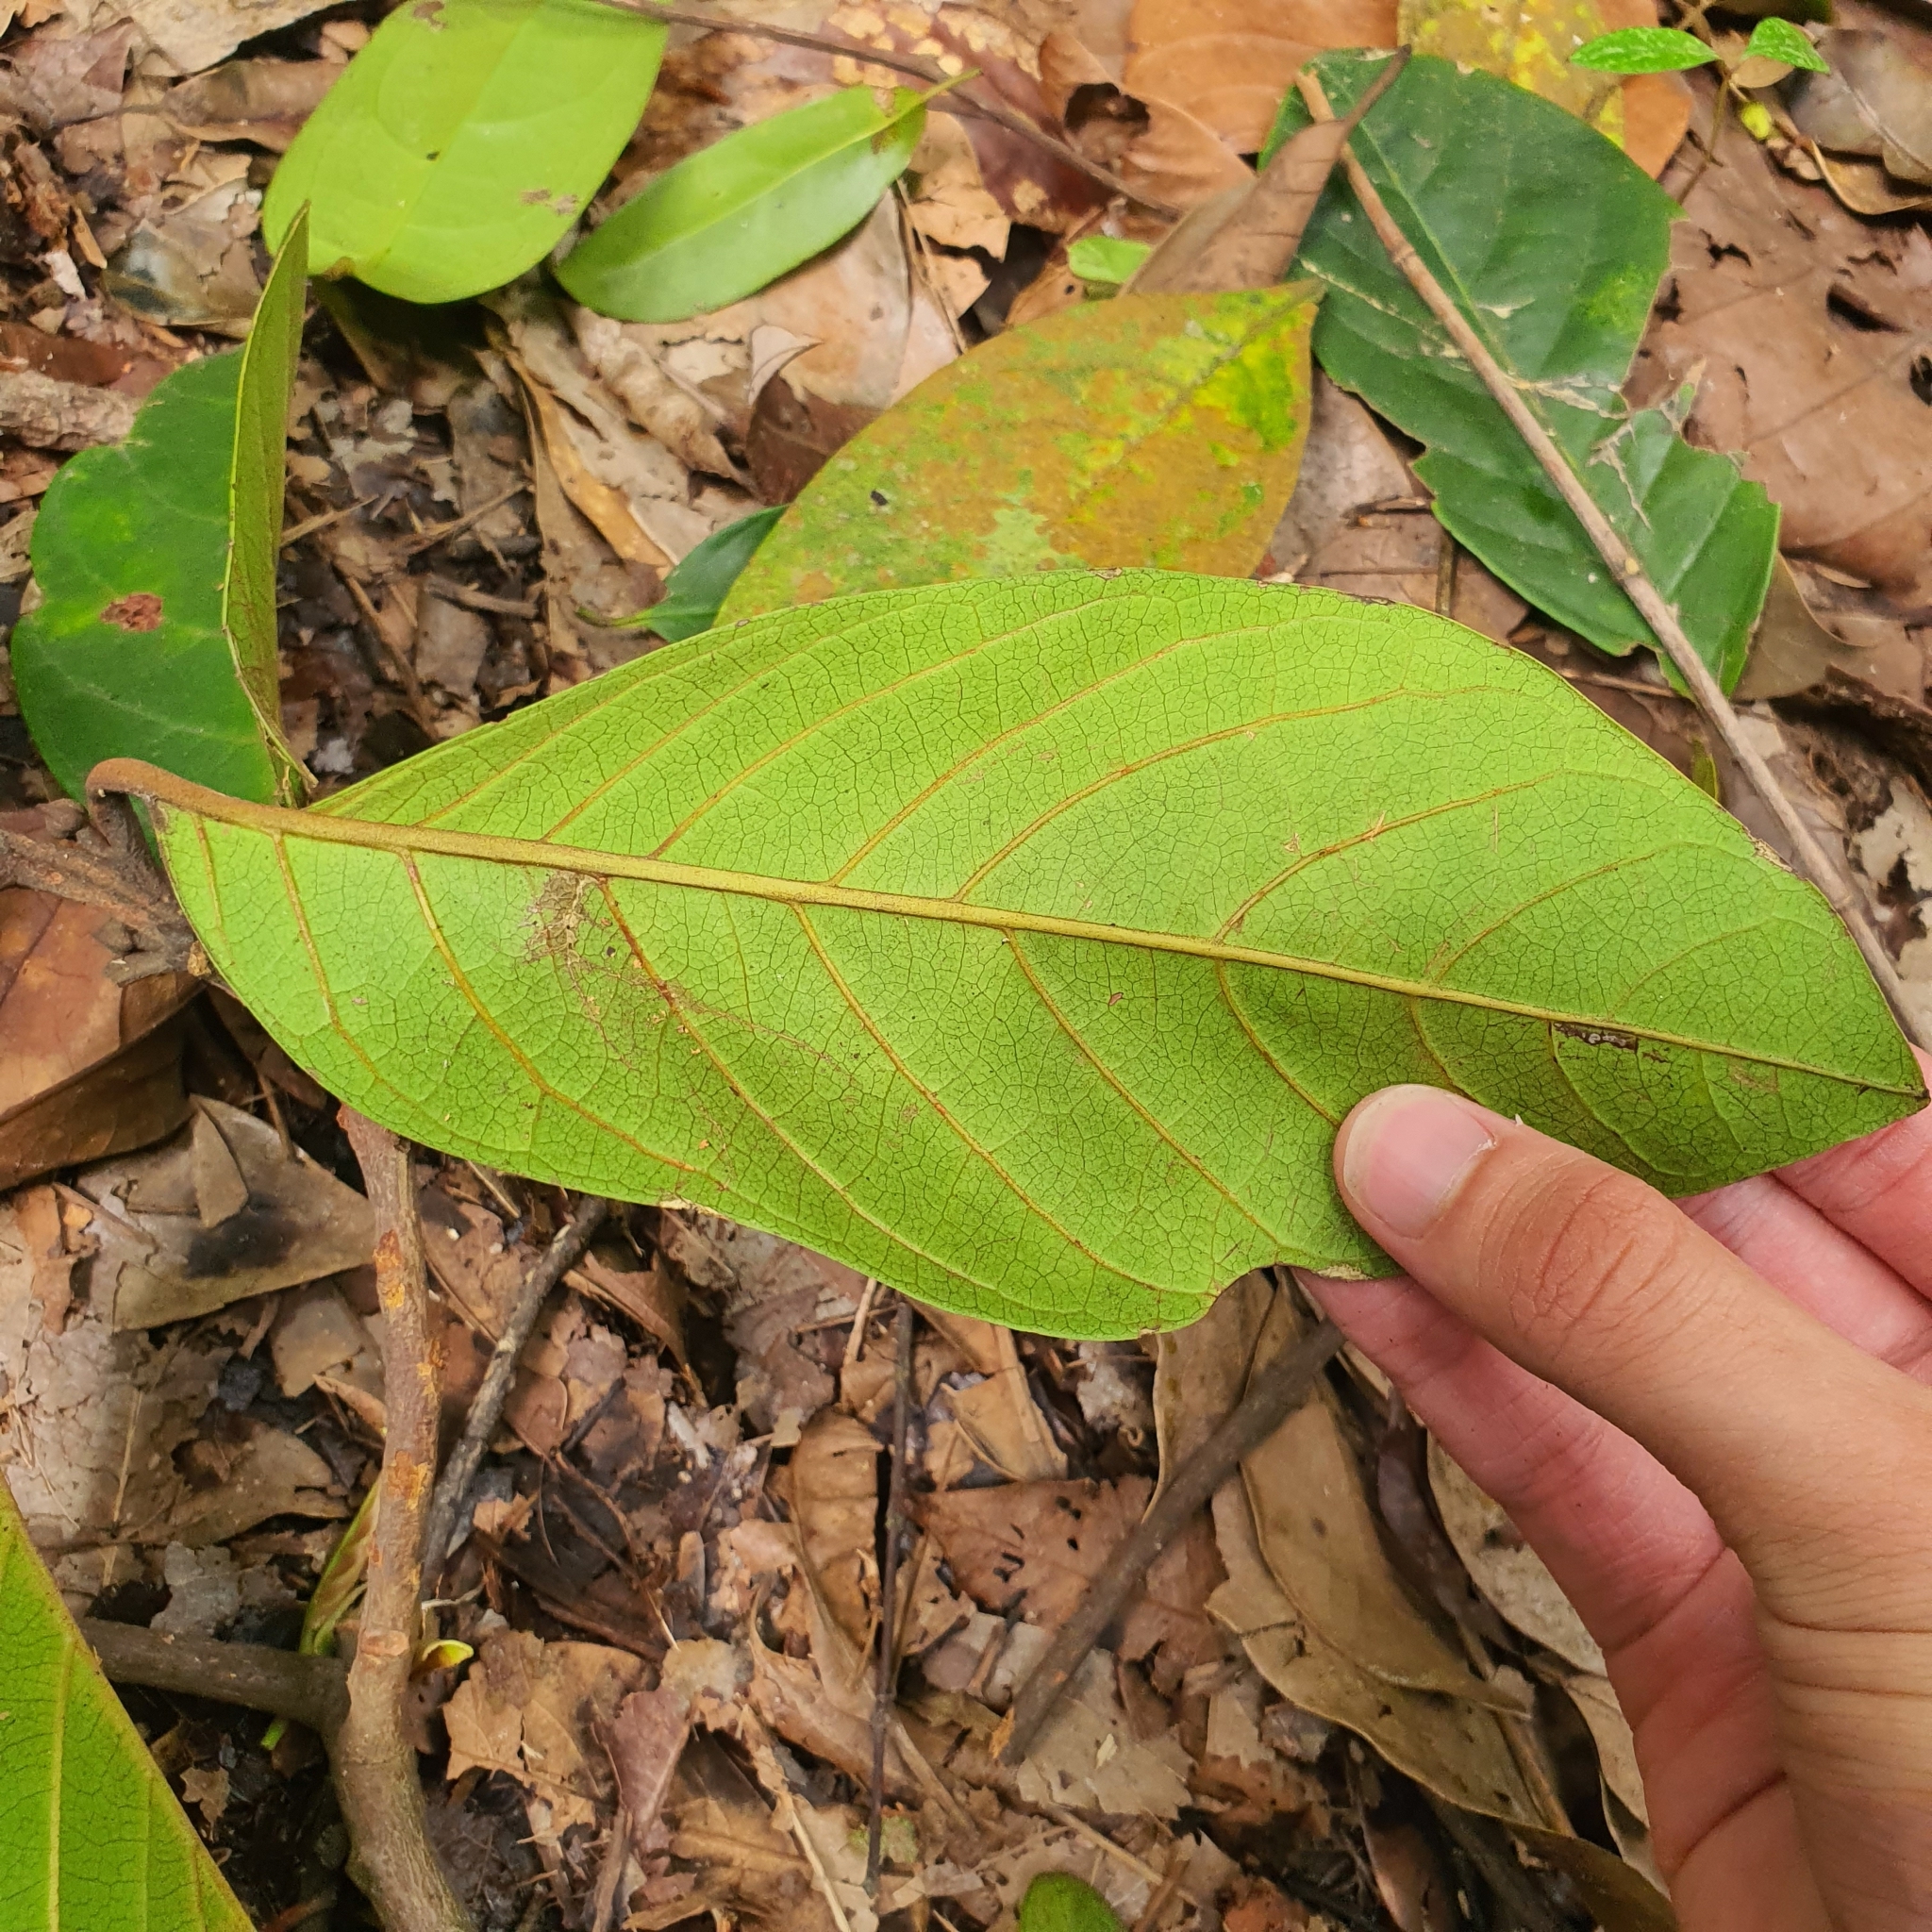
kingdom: Plantae
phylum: Tracheophyta
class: Magnoliopsida
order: Laurales
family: Lauraceae
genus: Beilschmiedia
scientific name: Beilschmiedia madang
